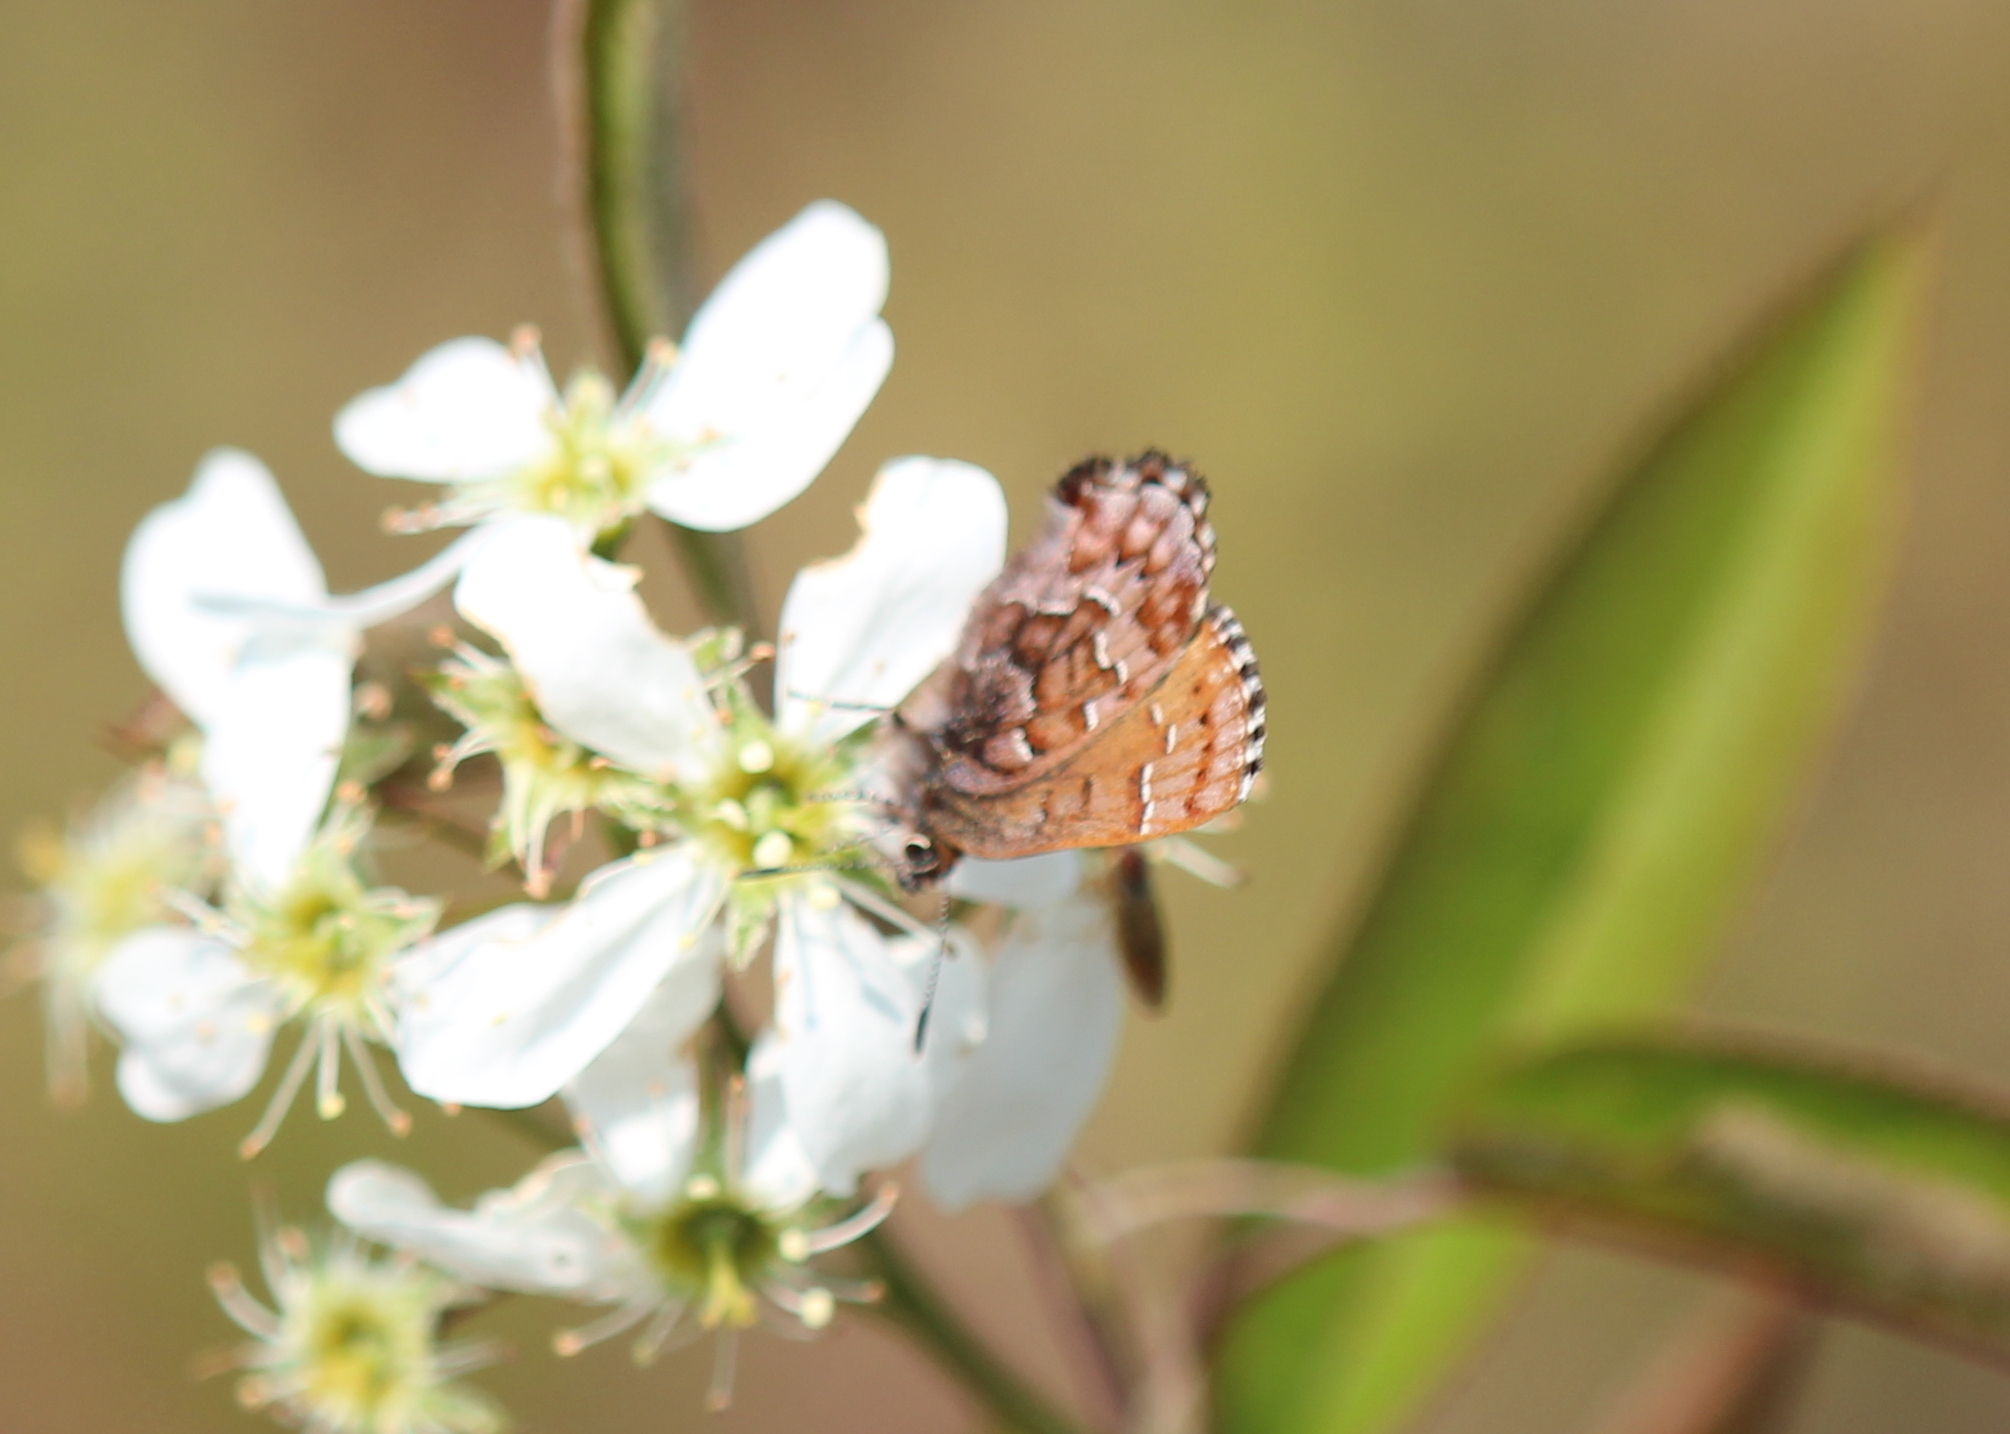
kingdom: Animalia
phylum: Arthropoda
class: Insecta
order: Lepidoptera
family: Lycaenidae
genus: Incisalia
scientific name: Incisalia niphon
